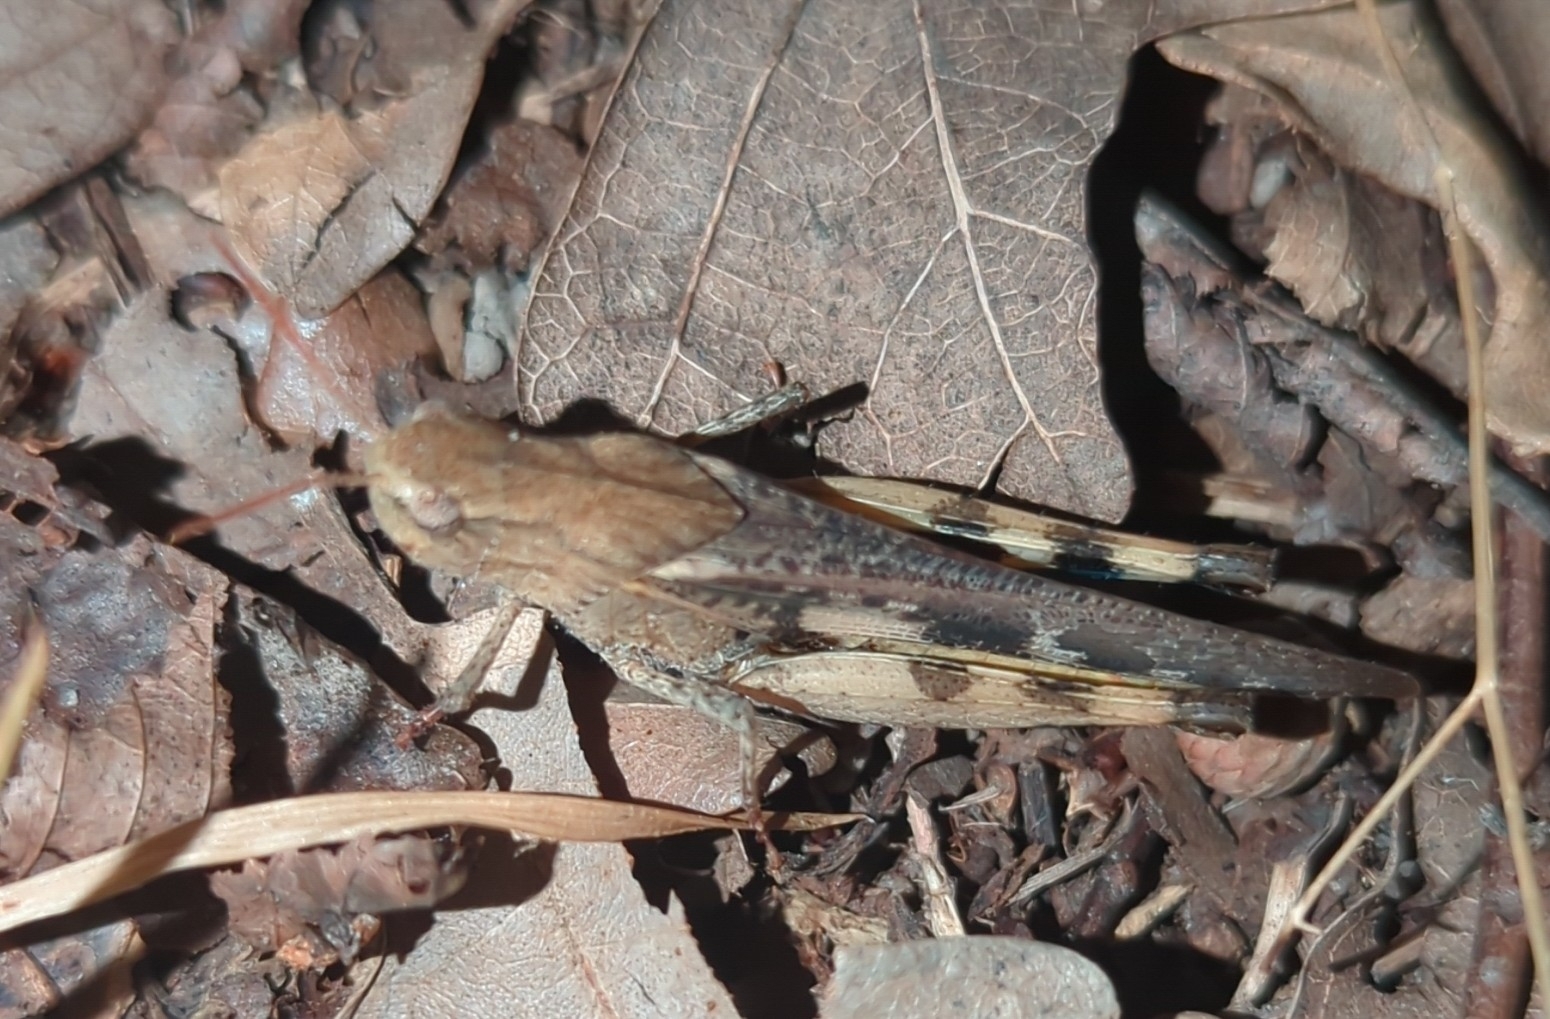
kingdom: Animalia
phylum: Arthropoda
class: Insecta
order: Orthoptera
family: Acrididae
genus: Chortophaga
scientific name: Chortophaga viridifasciata
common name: Green-striped grasshopper
